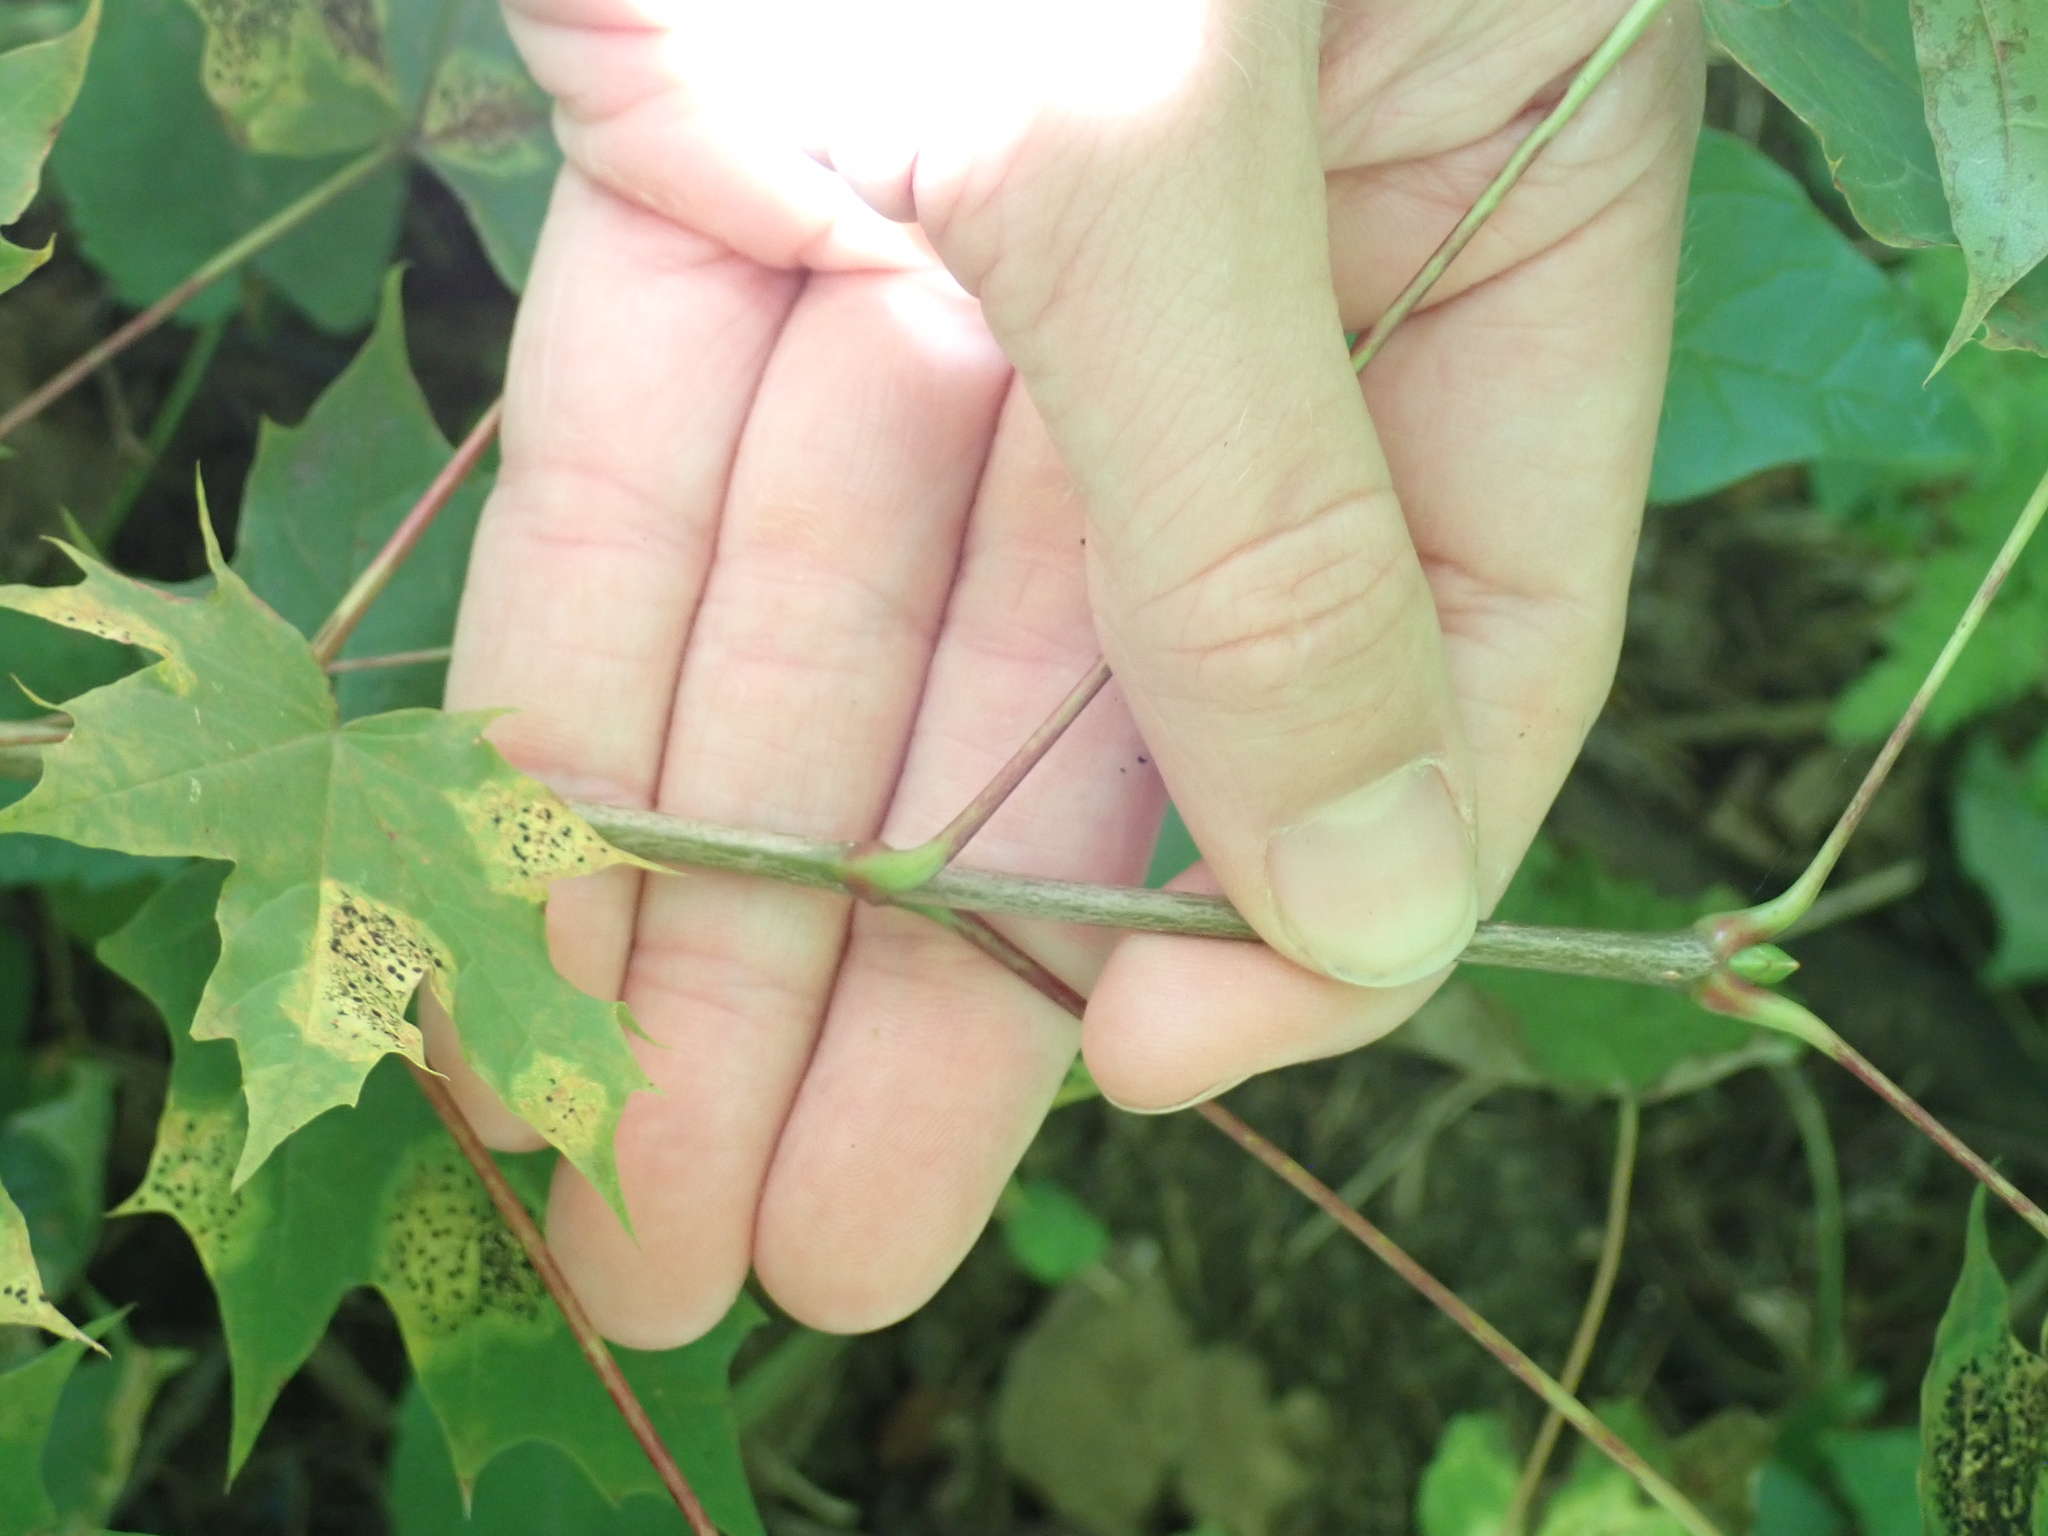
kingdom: Plantae
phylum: Tracheophyta
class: Magnoliopsida
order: Sapindales
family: Sapindaceae
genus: Acer
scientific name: Acer platanoides
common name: Norway maple
